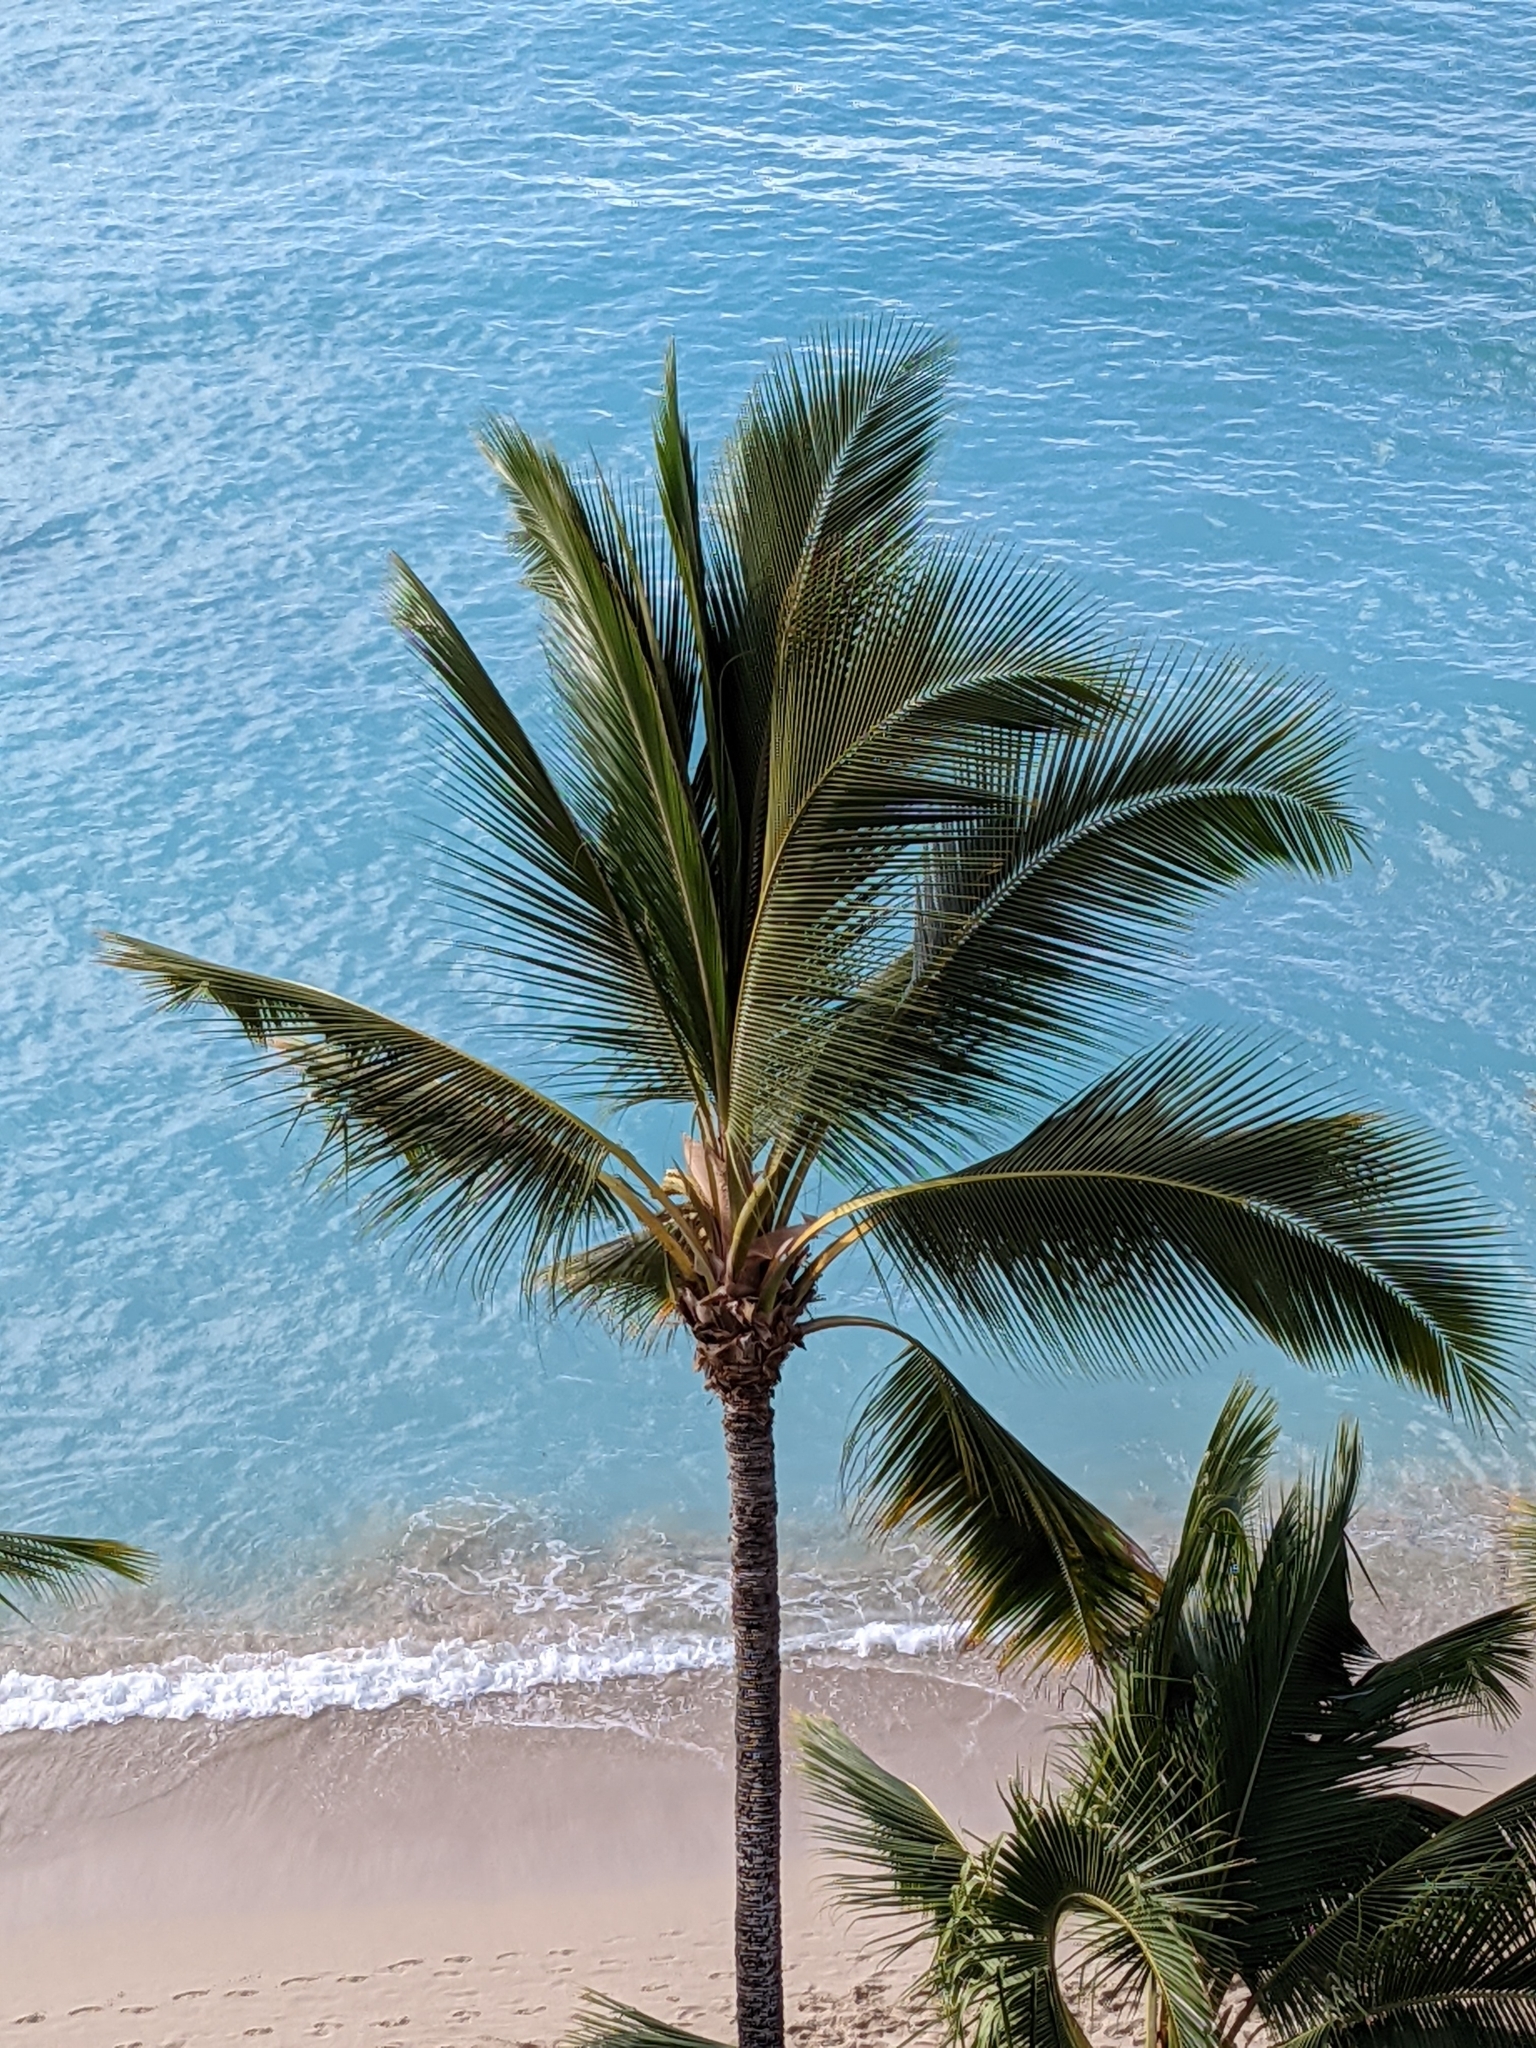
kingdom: Plantae
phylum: Tracheophyta
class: Liliopsida
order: Arecales
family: Arecaceae
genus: Cocos
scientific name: Cocos nucifera
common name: Coconut palm
